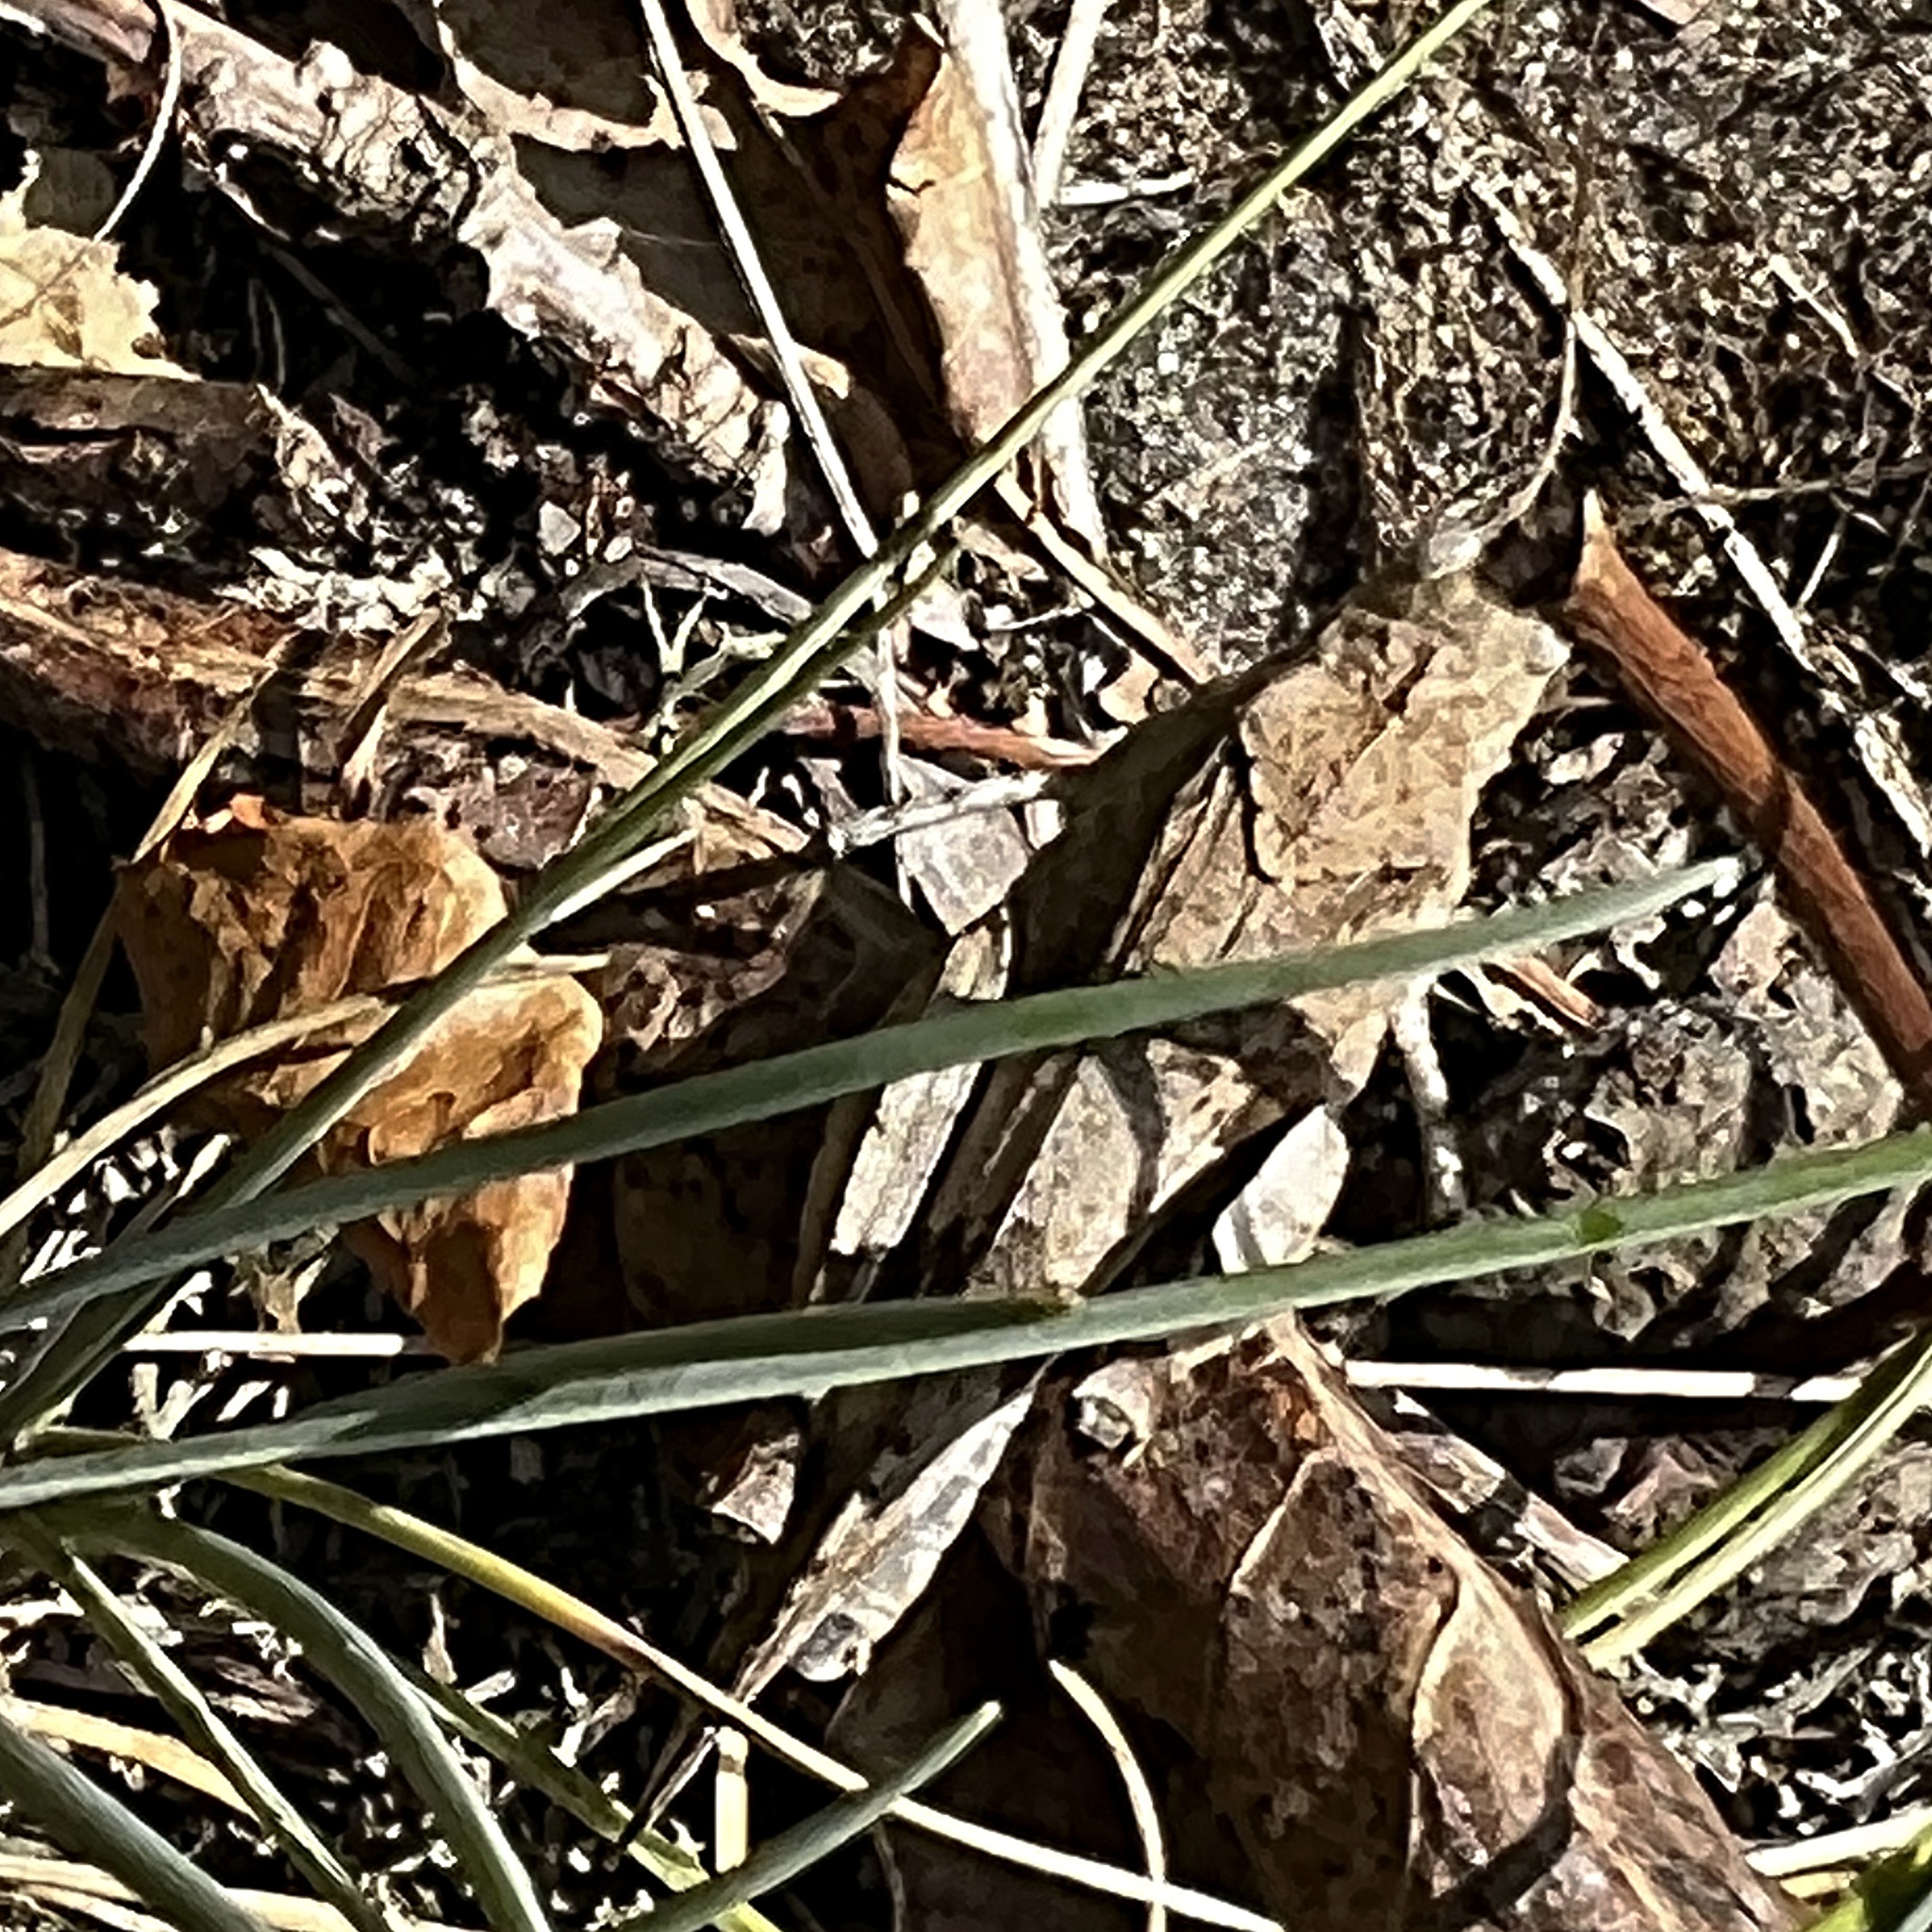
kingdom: Animalia
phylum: Arthropoda
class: Insecta
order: Orthoptera
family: Acrididae
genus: Oedipoda
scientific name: Oedipoda caerulescens
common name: Blue-winged grasshopper
